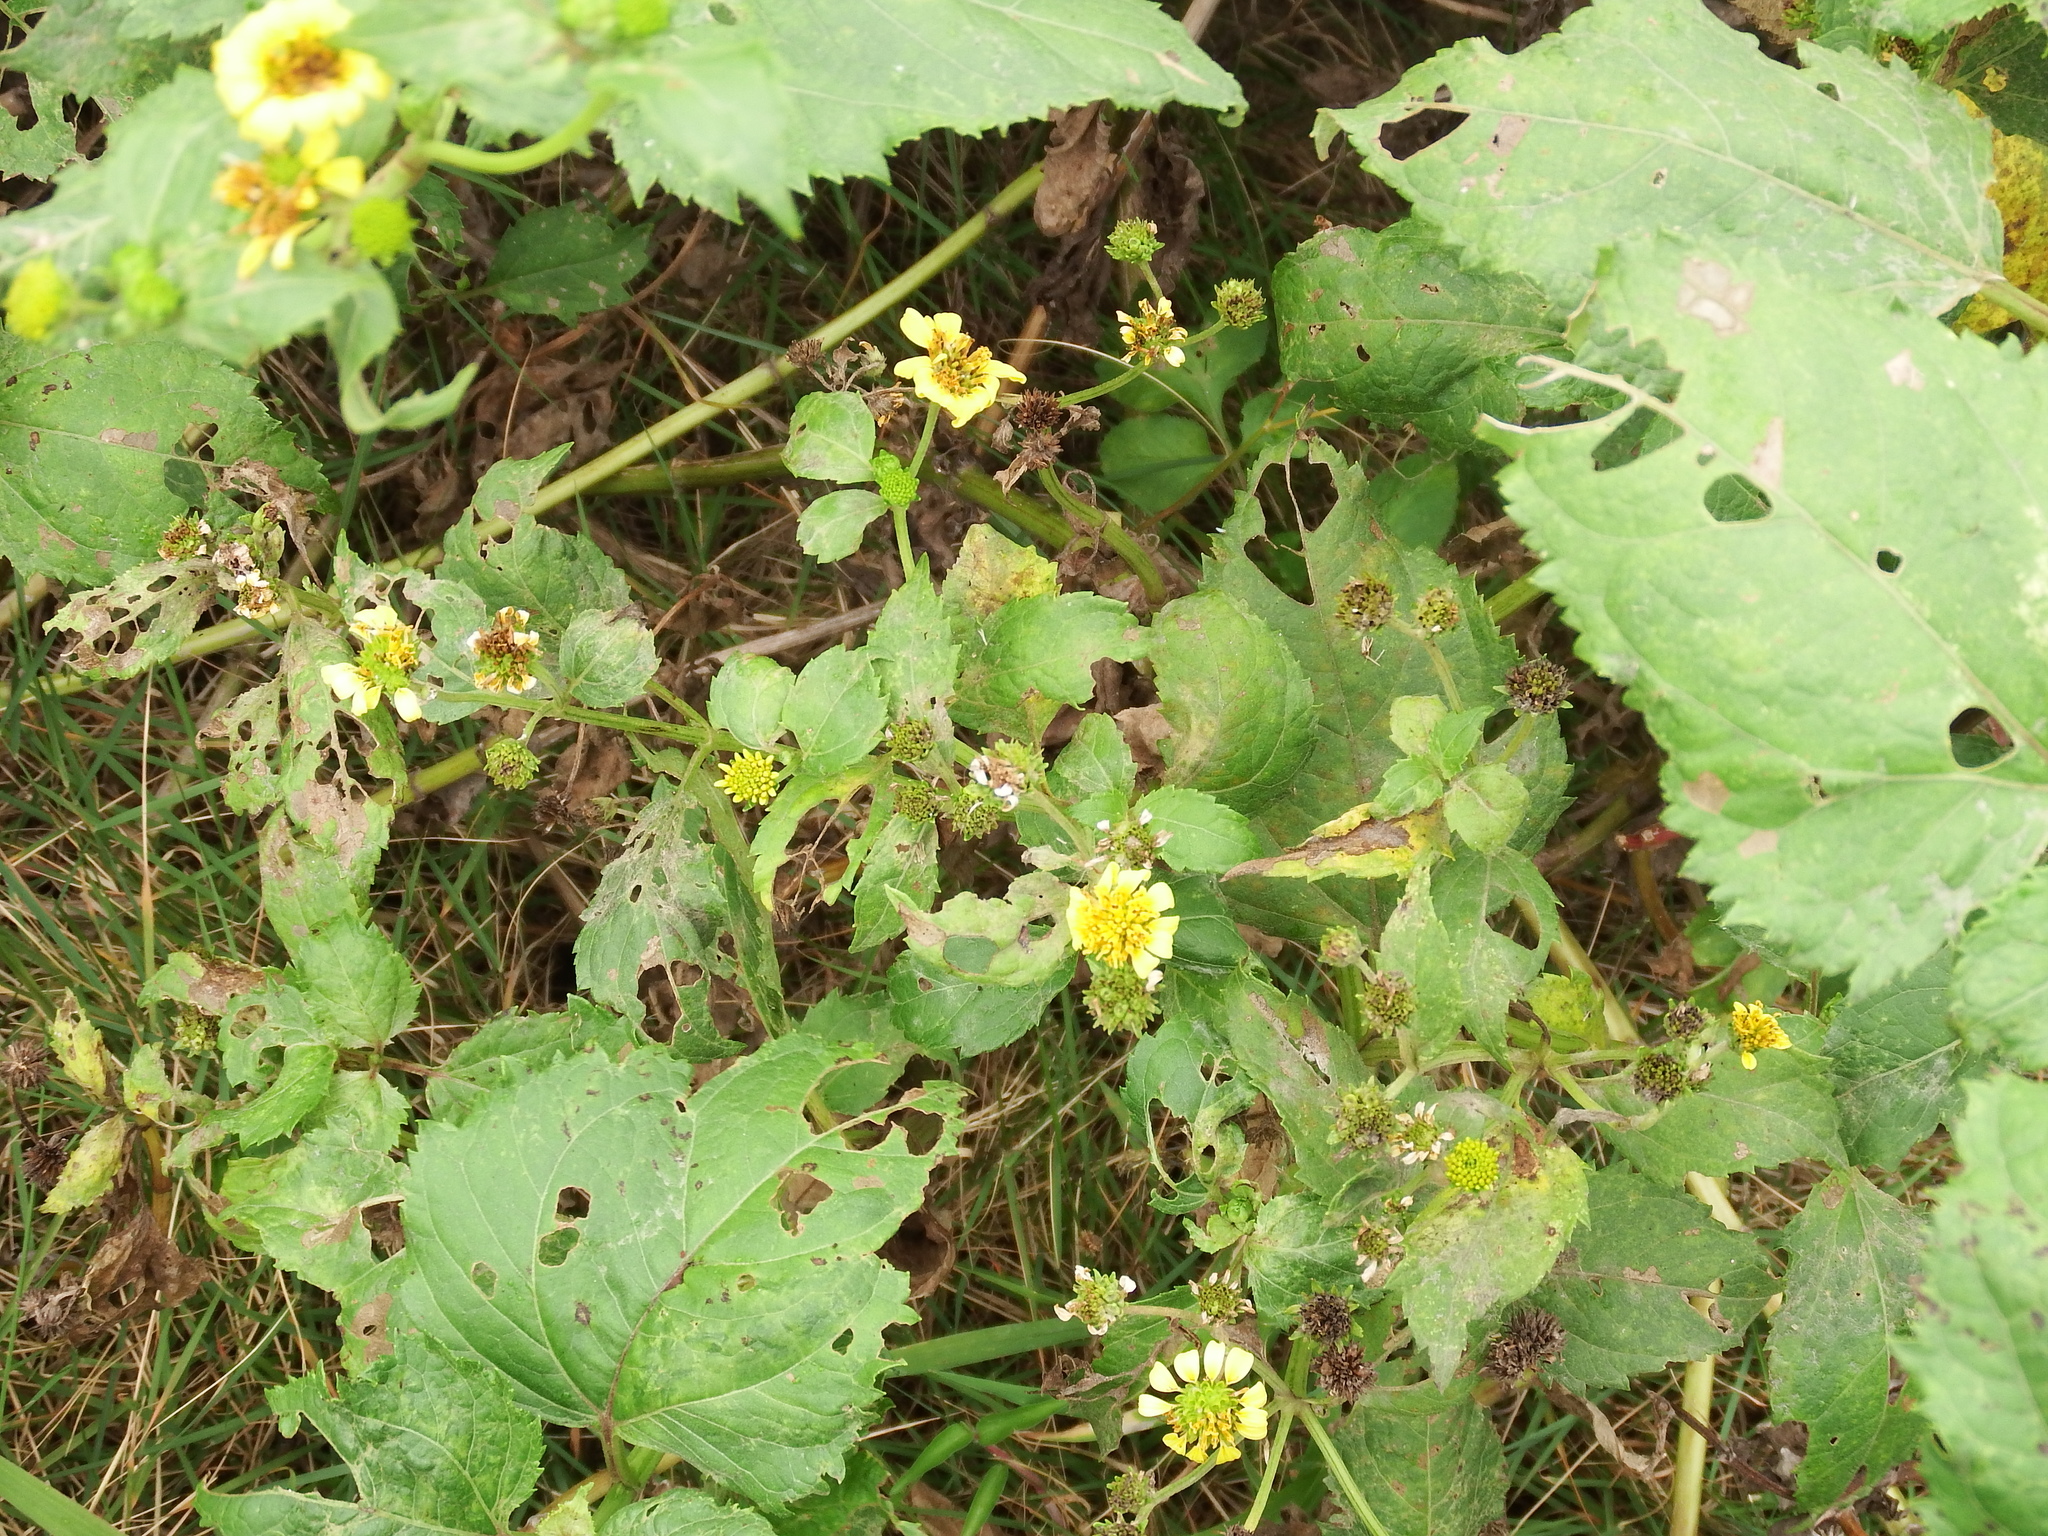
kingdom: Plantae
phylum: Tracheophyta
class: Magnoliopsida
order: Asterales
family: Asteraceae
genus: Wollastonia
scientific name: Wollastonia biflora
